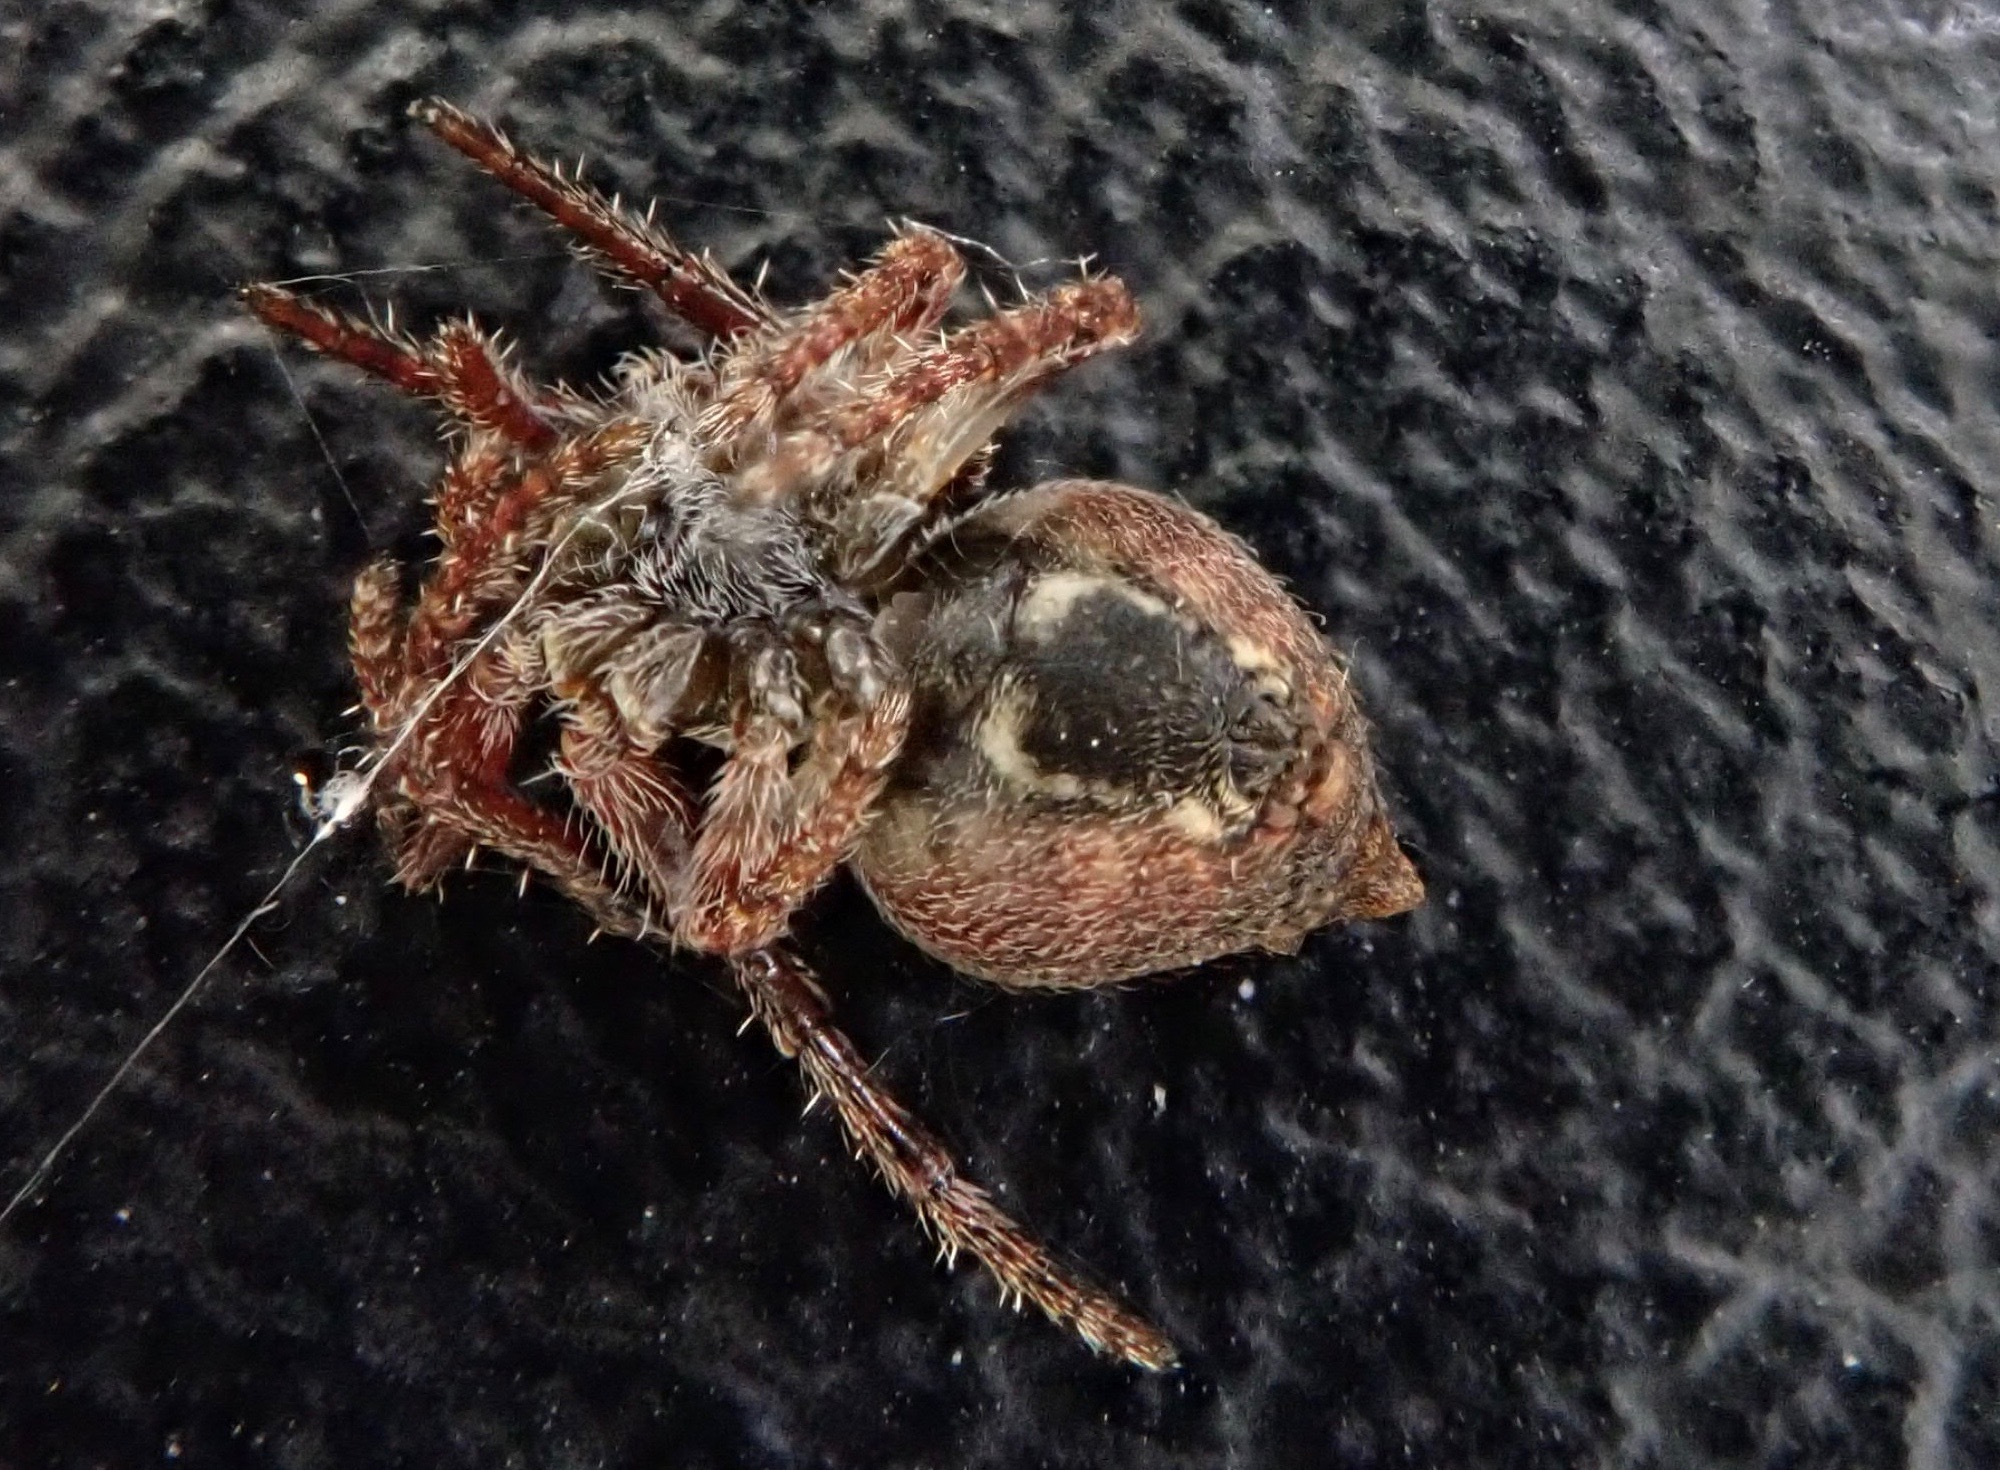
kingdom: Animalia
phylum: Arthropoda
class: Arachnida
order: Araneae
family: Araneidae
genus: Eriophora
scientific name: Eriophora pustulosa
